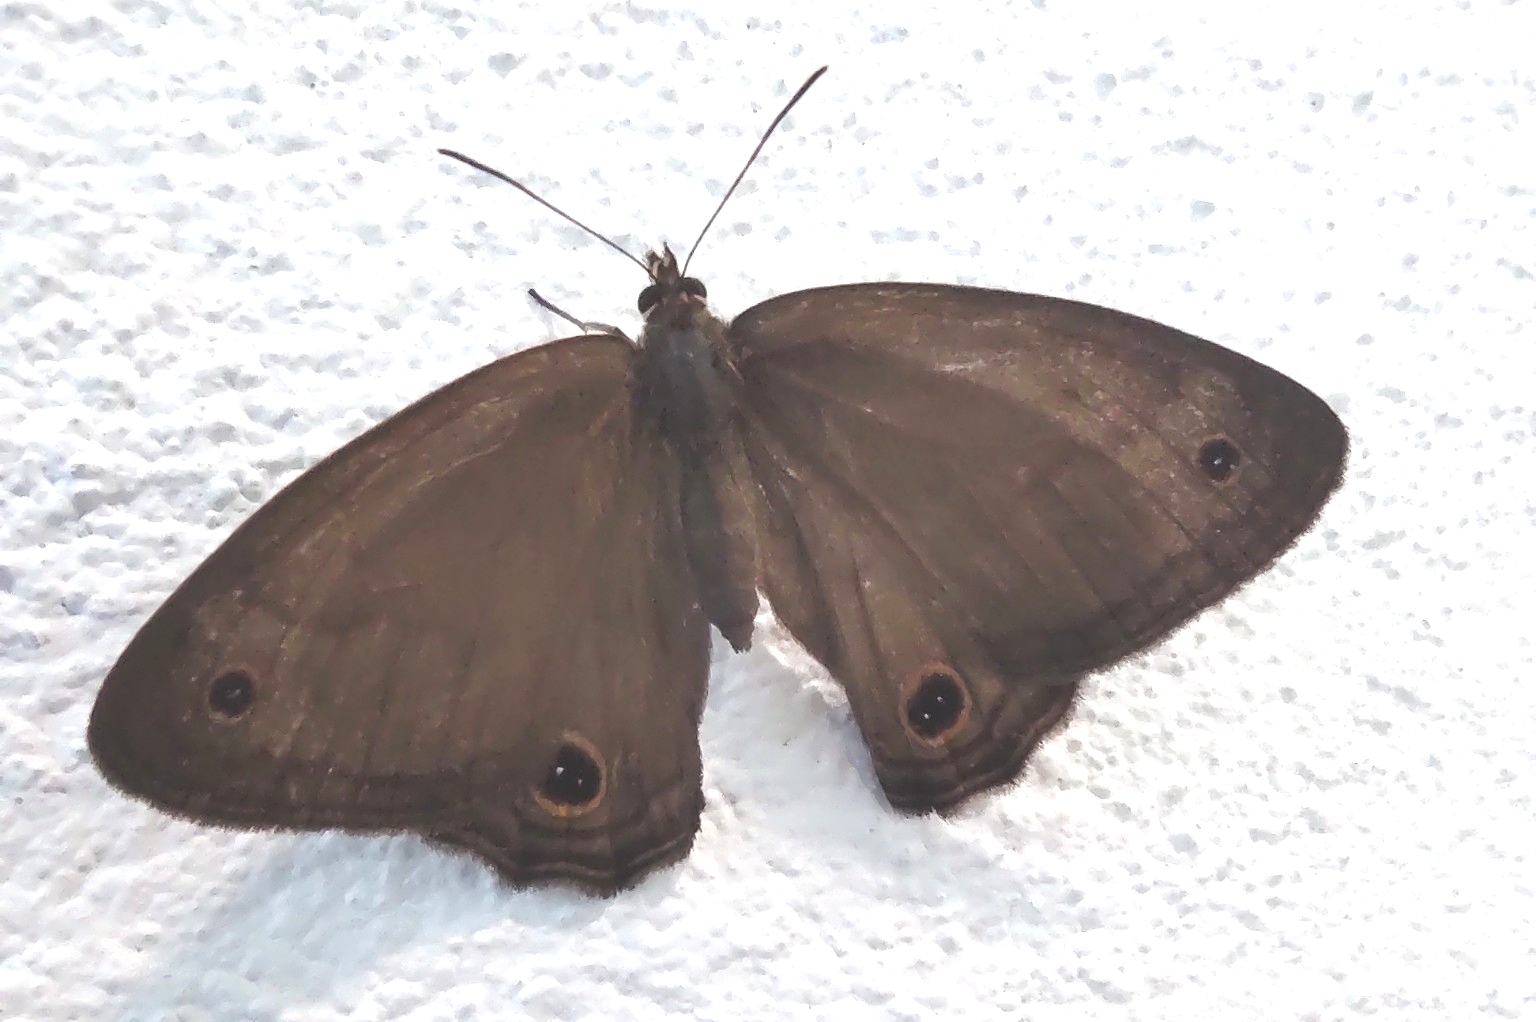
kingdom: Animalia
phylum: Arthropoda
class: Insecta
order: Lepidoptera
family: Nymphalidae
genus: Graphita
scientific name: Graphita griphe
